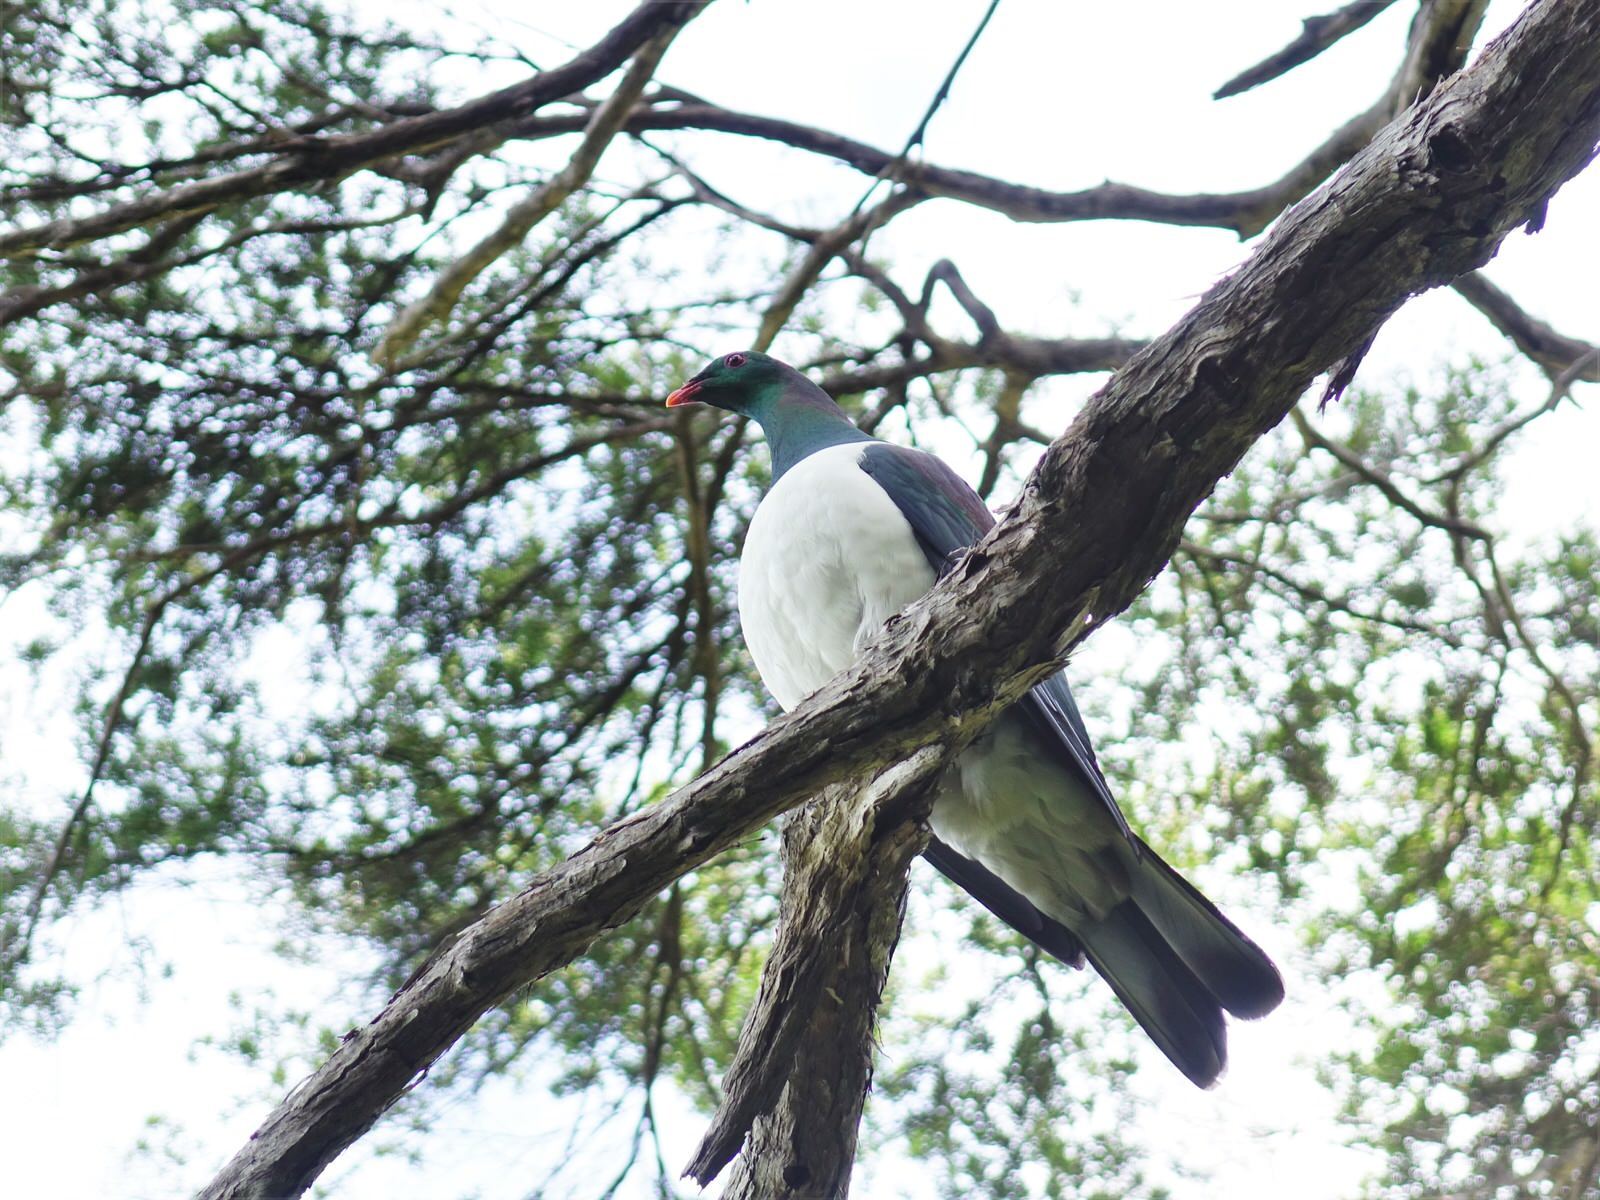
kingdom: Animalia
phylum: Chordata
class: Aves
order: Columbiformes
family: Columbidae
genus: Hemiphaga
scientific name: Hemiphaga novaeseelandiae
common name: New zealand pigeon
